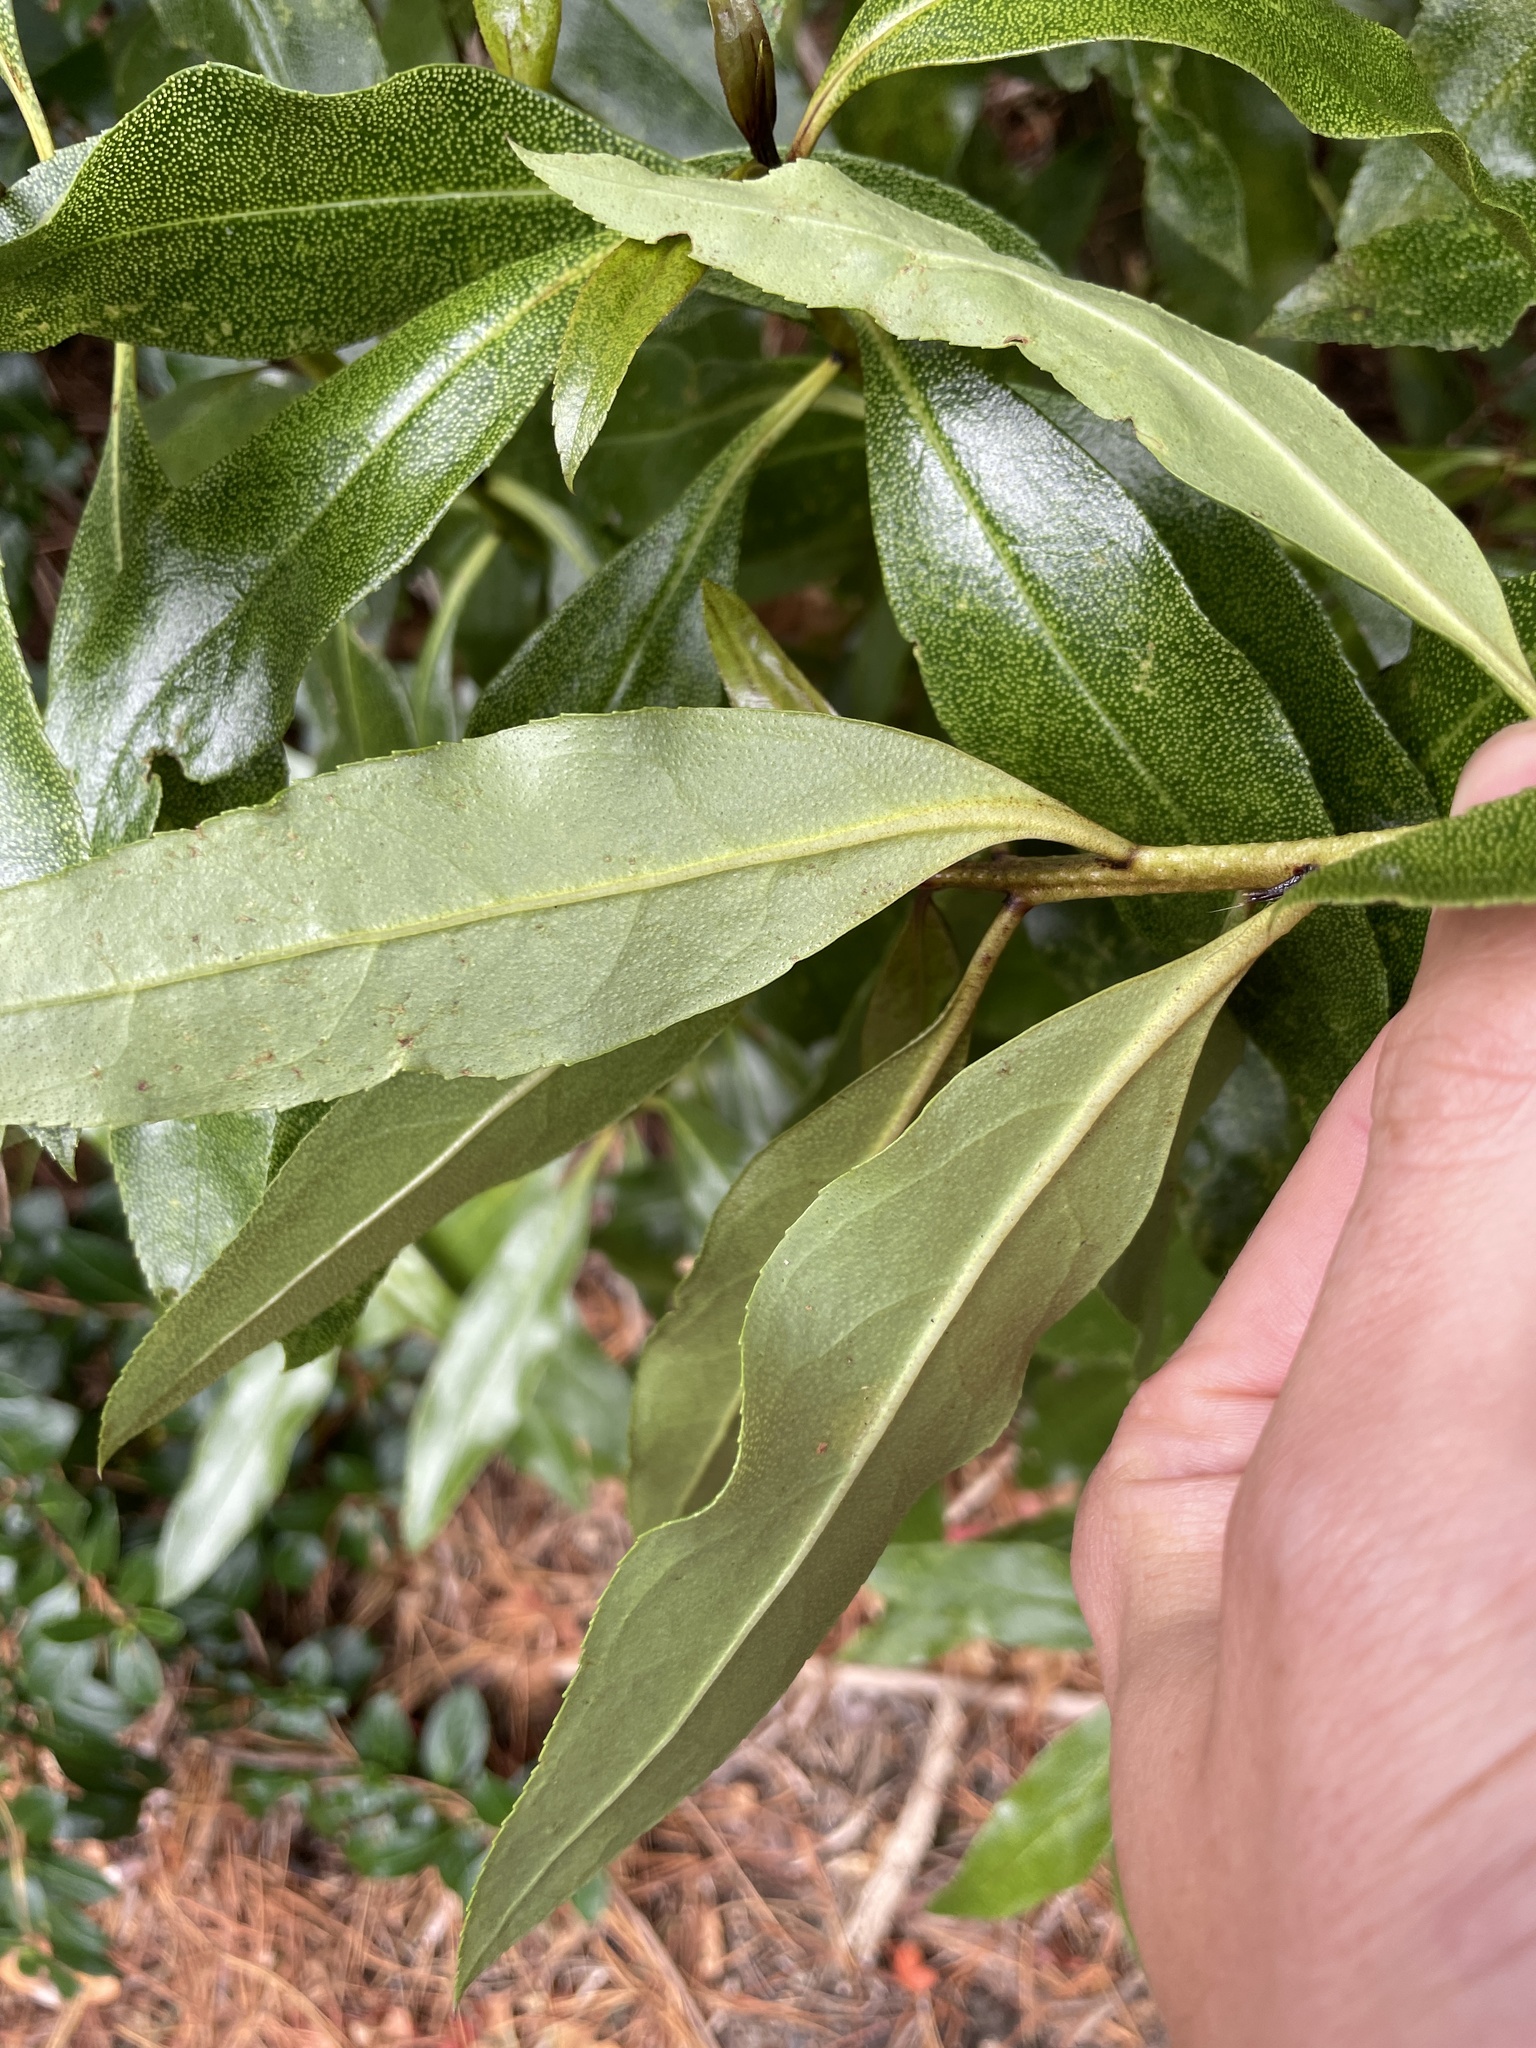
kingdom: Plantae
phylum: Tracheophyta
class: Magnoliopsida
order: Lamiales
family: Scrophulariaceae
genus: Myoporum
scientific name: Myoporum laetum
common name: Ngaio tree
